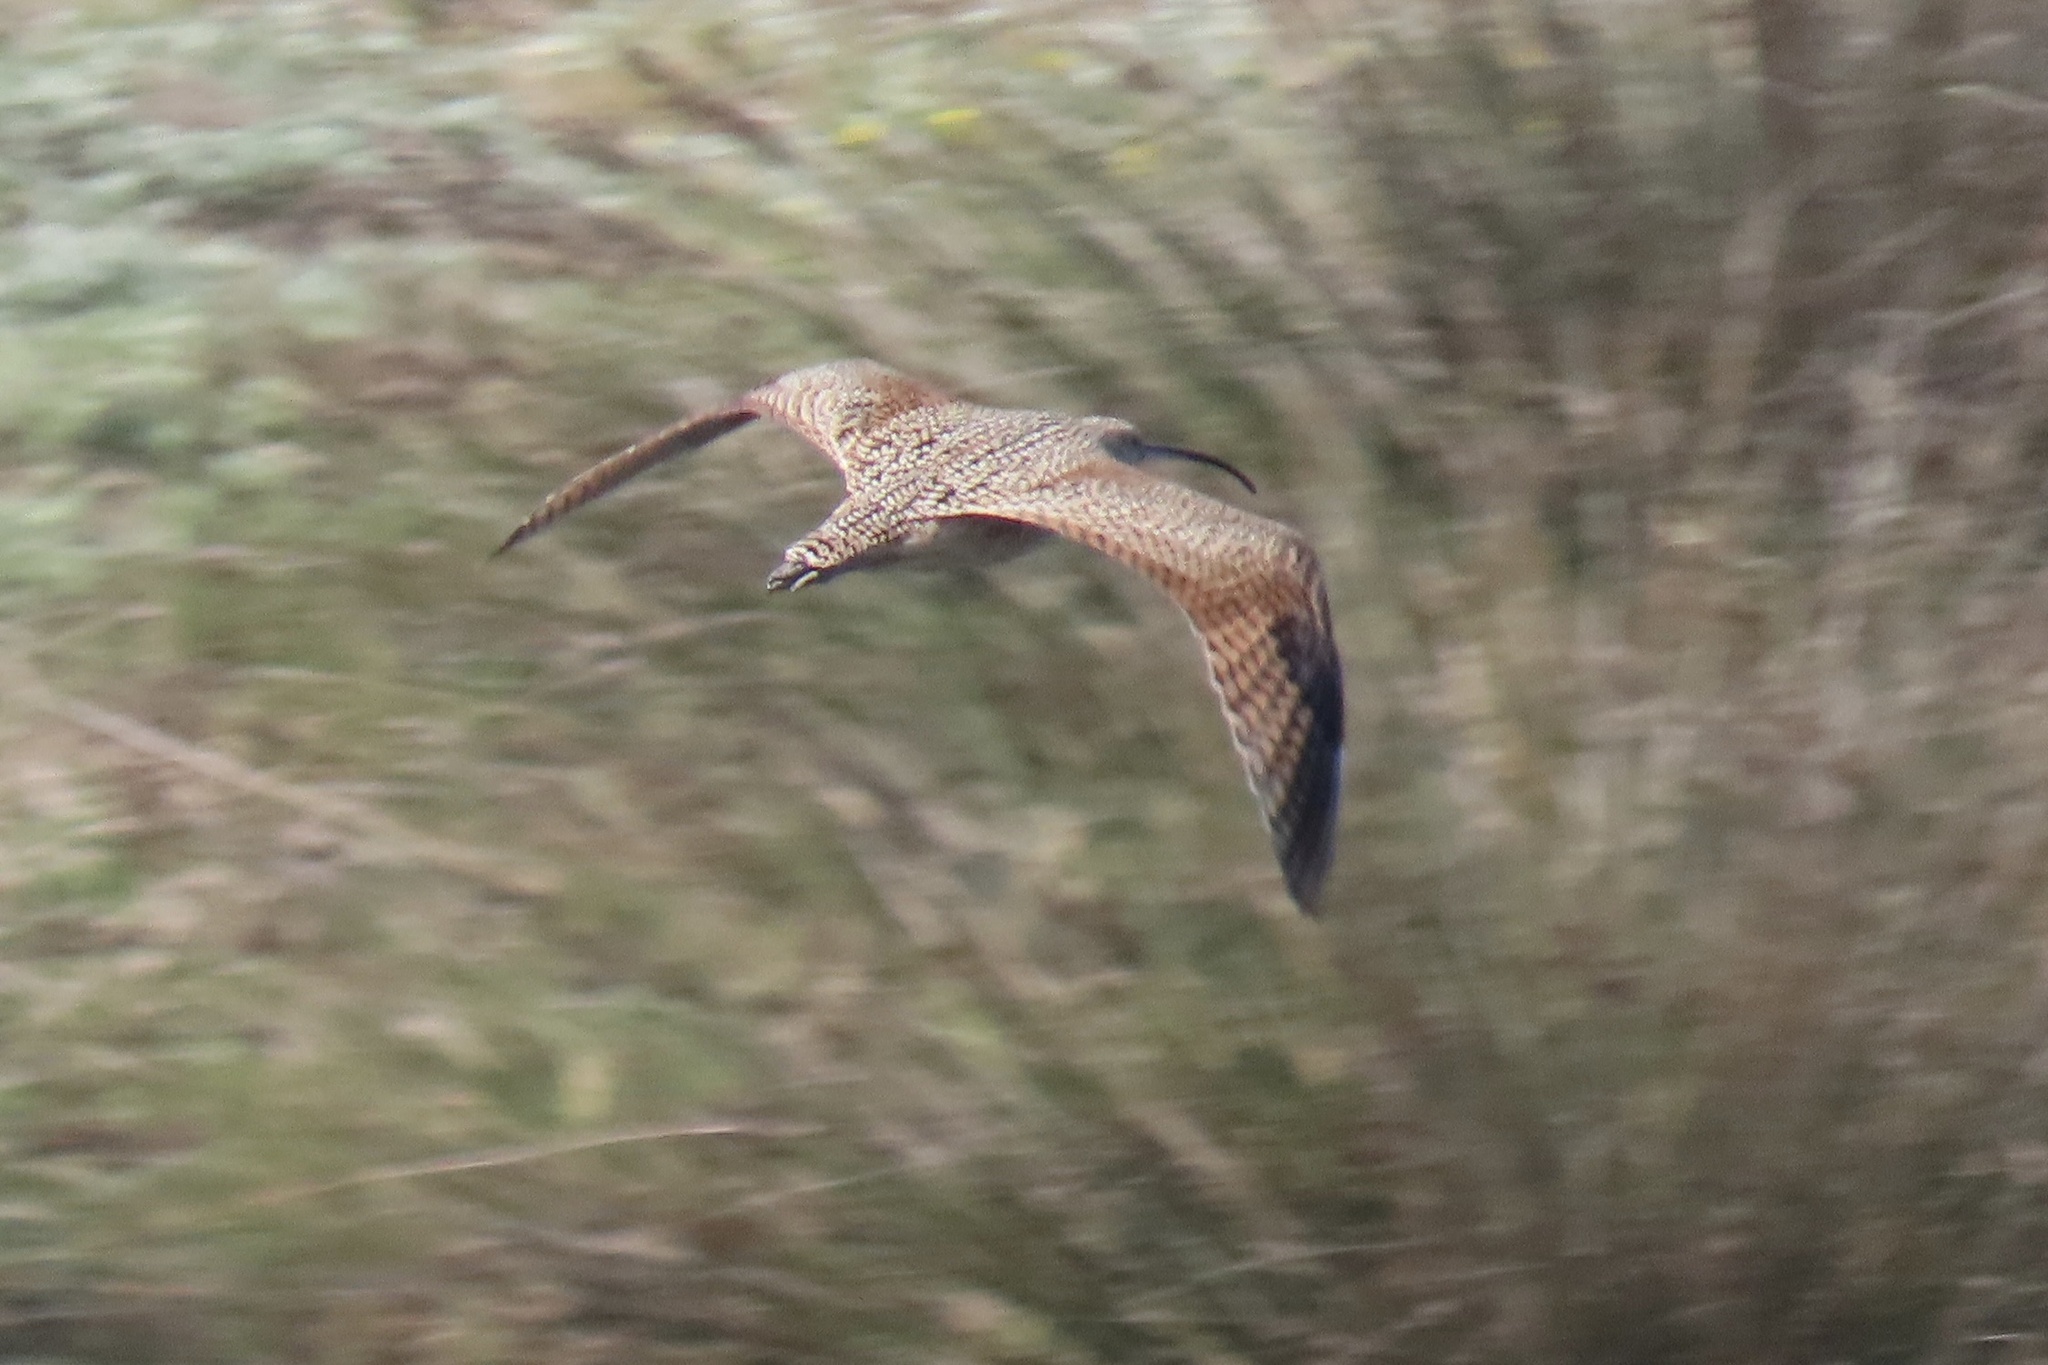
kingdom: Animalia
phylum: Chordata
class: Aves
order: Charadriiformes
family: Scolopacidae
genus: Numenius
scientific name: Numenius americanus
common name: Long-billed curlew
